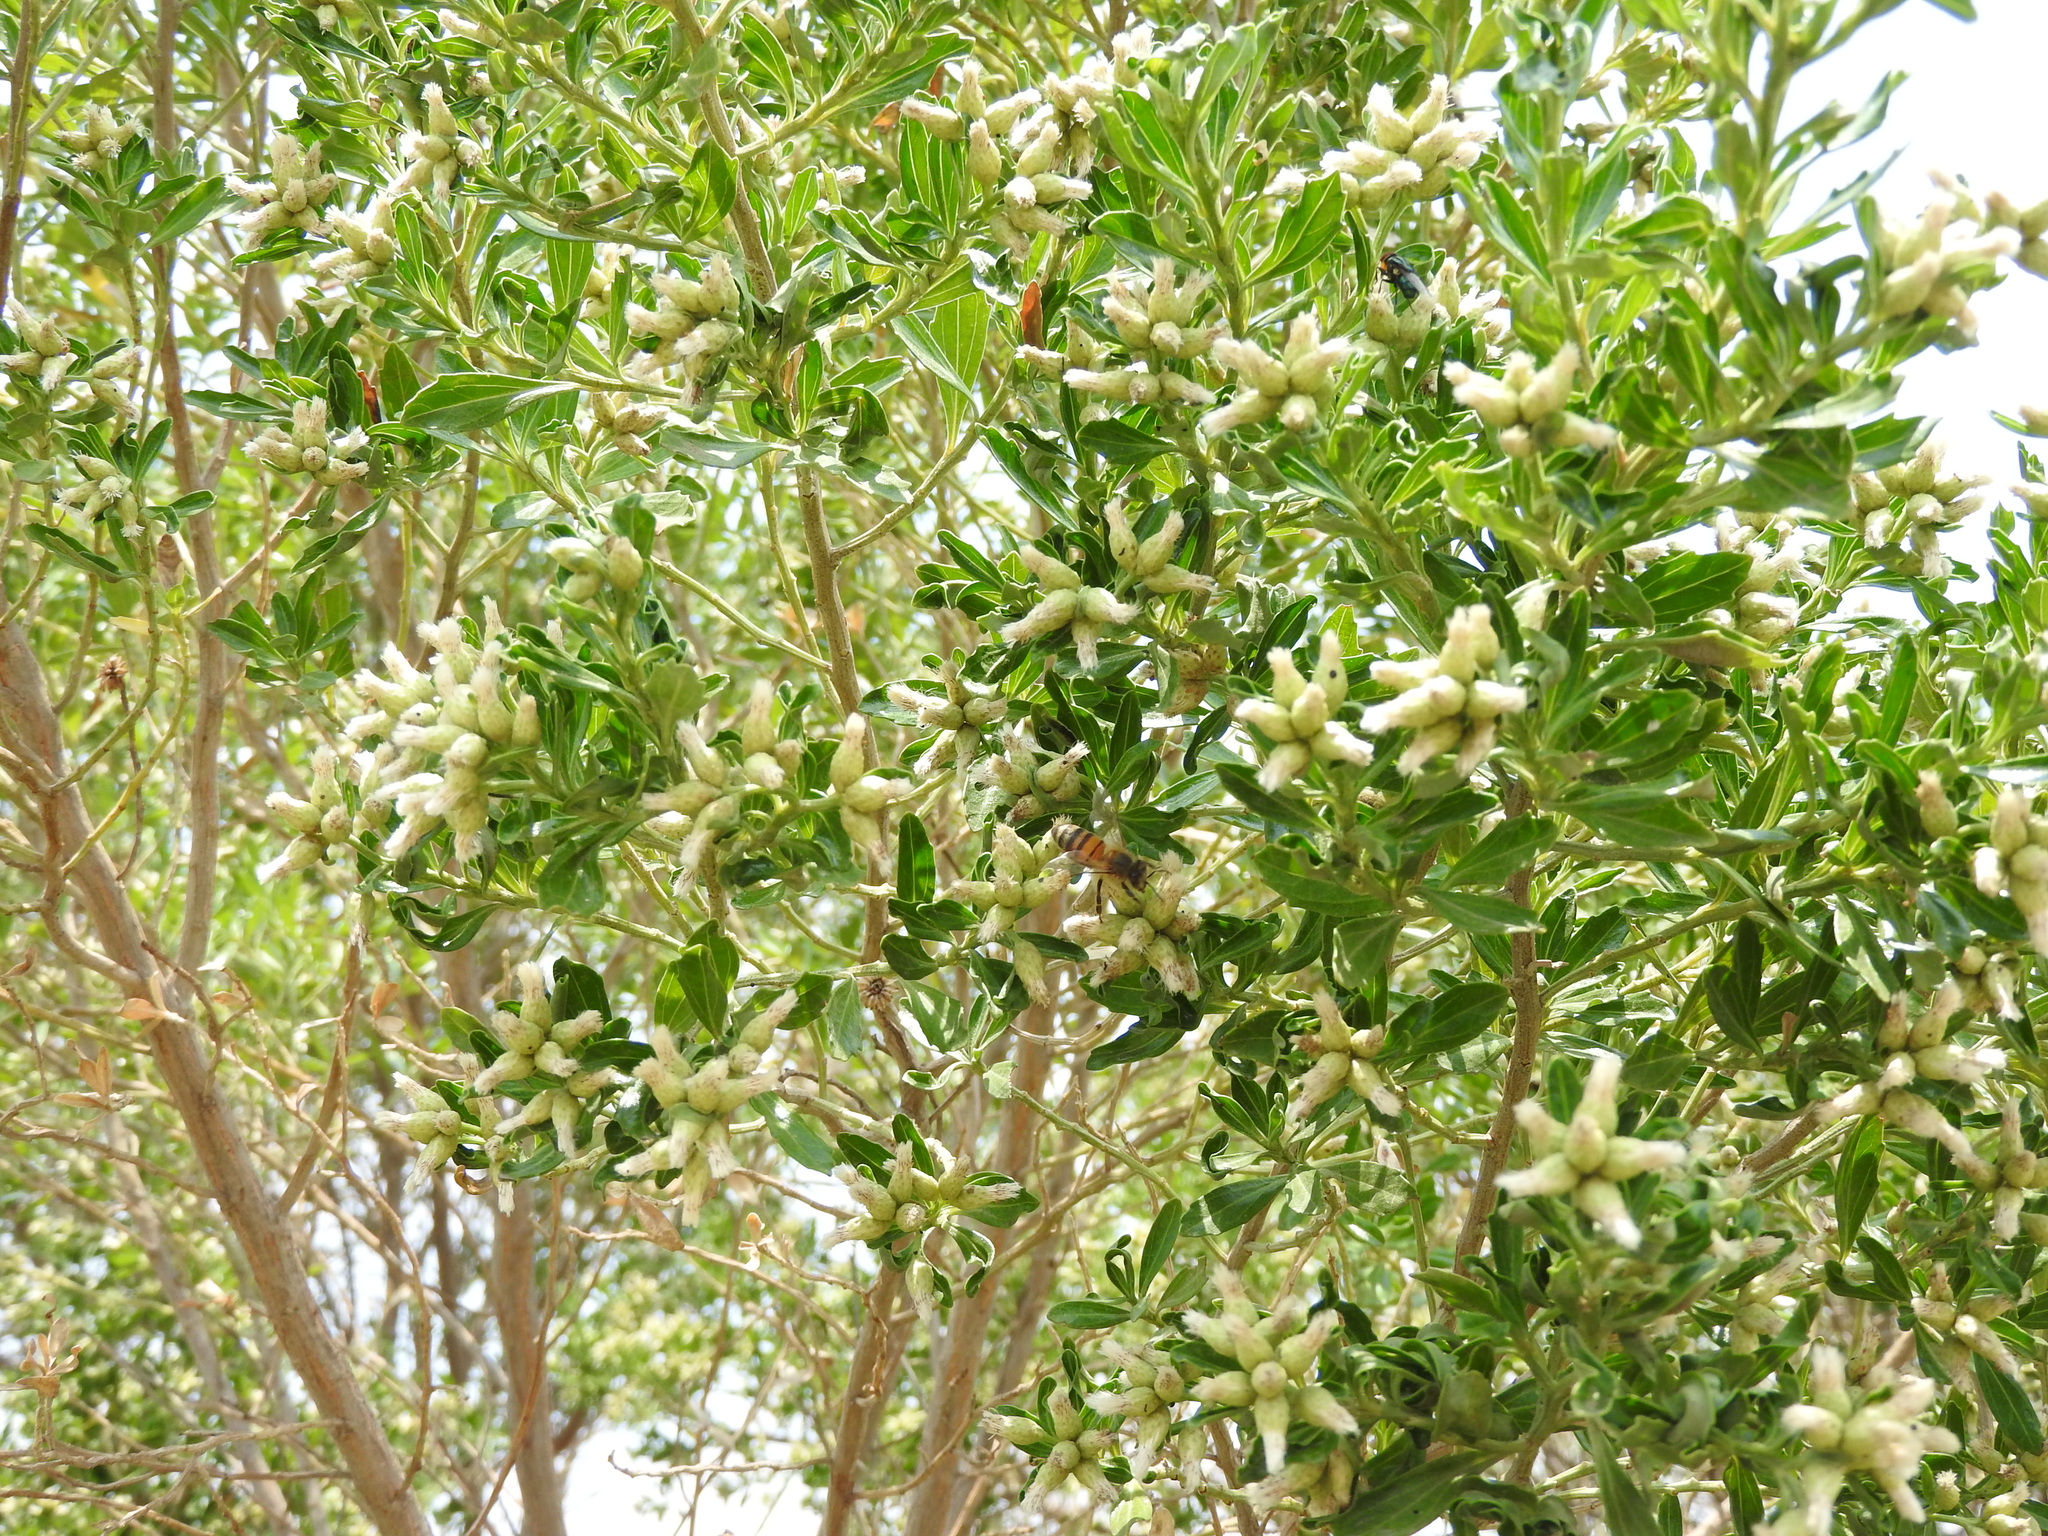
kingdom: Animalia
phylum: Arthropoda
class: Insecta
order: Hymenoptera
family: Apidae
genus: Apis
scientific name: Apis mellifera
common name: Honey bee
